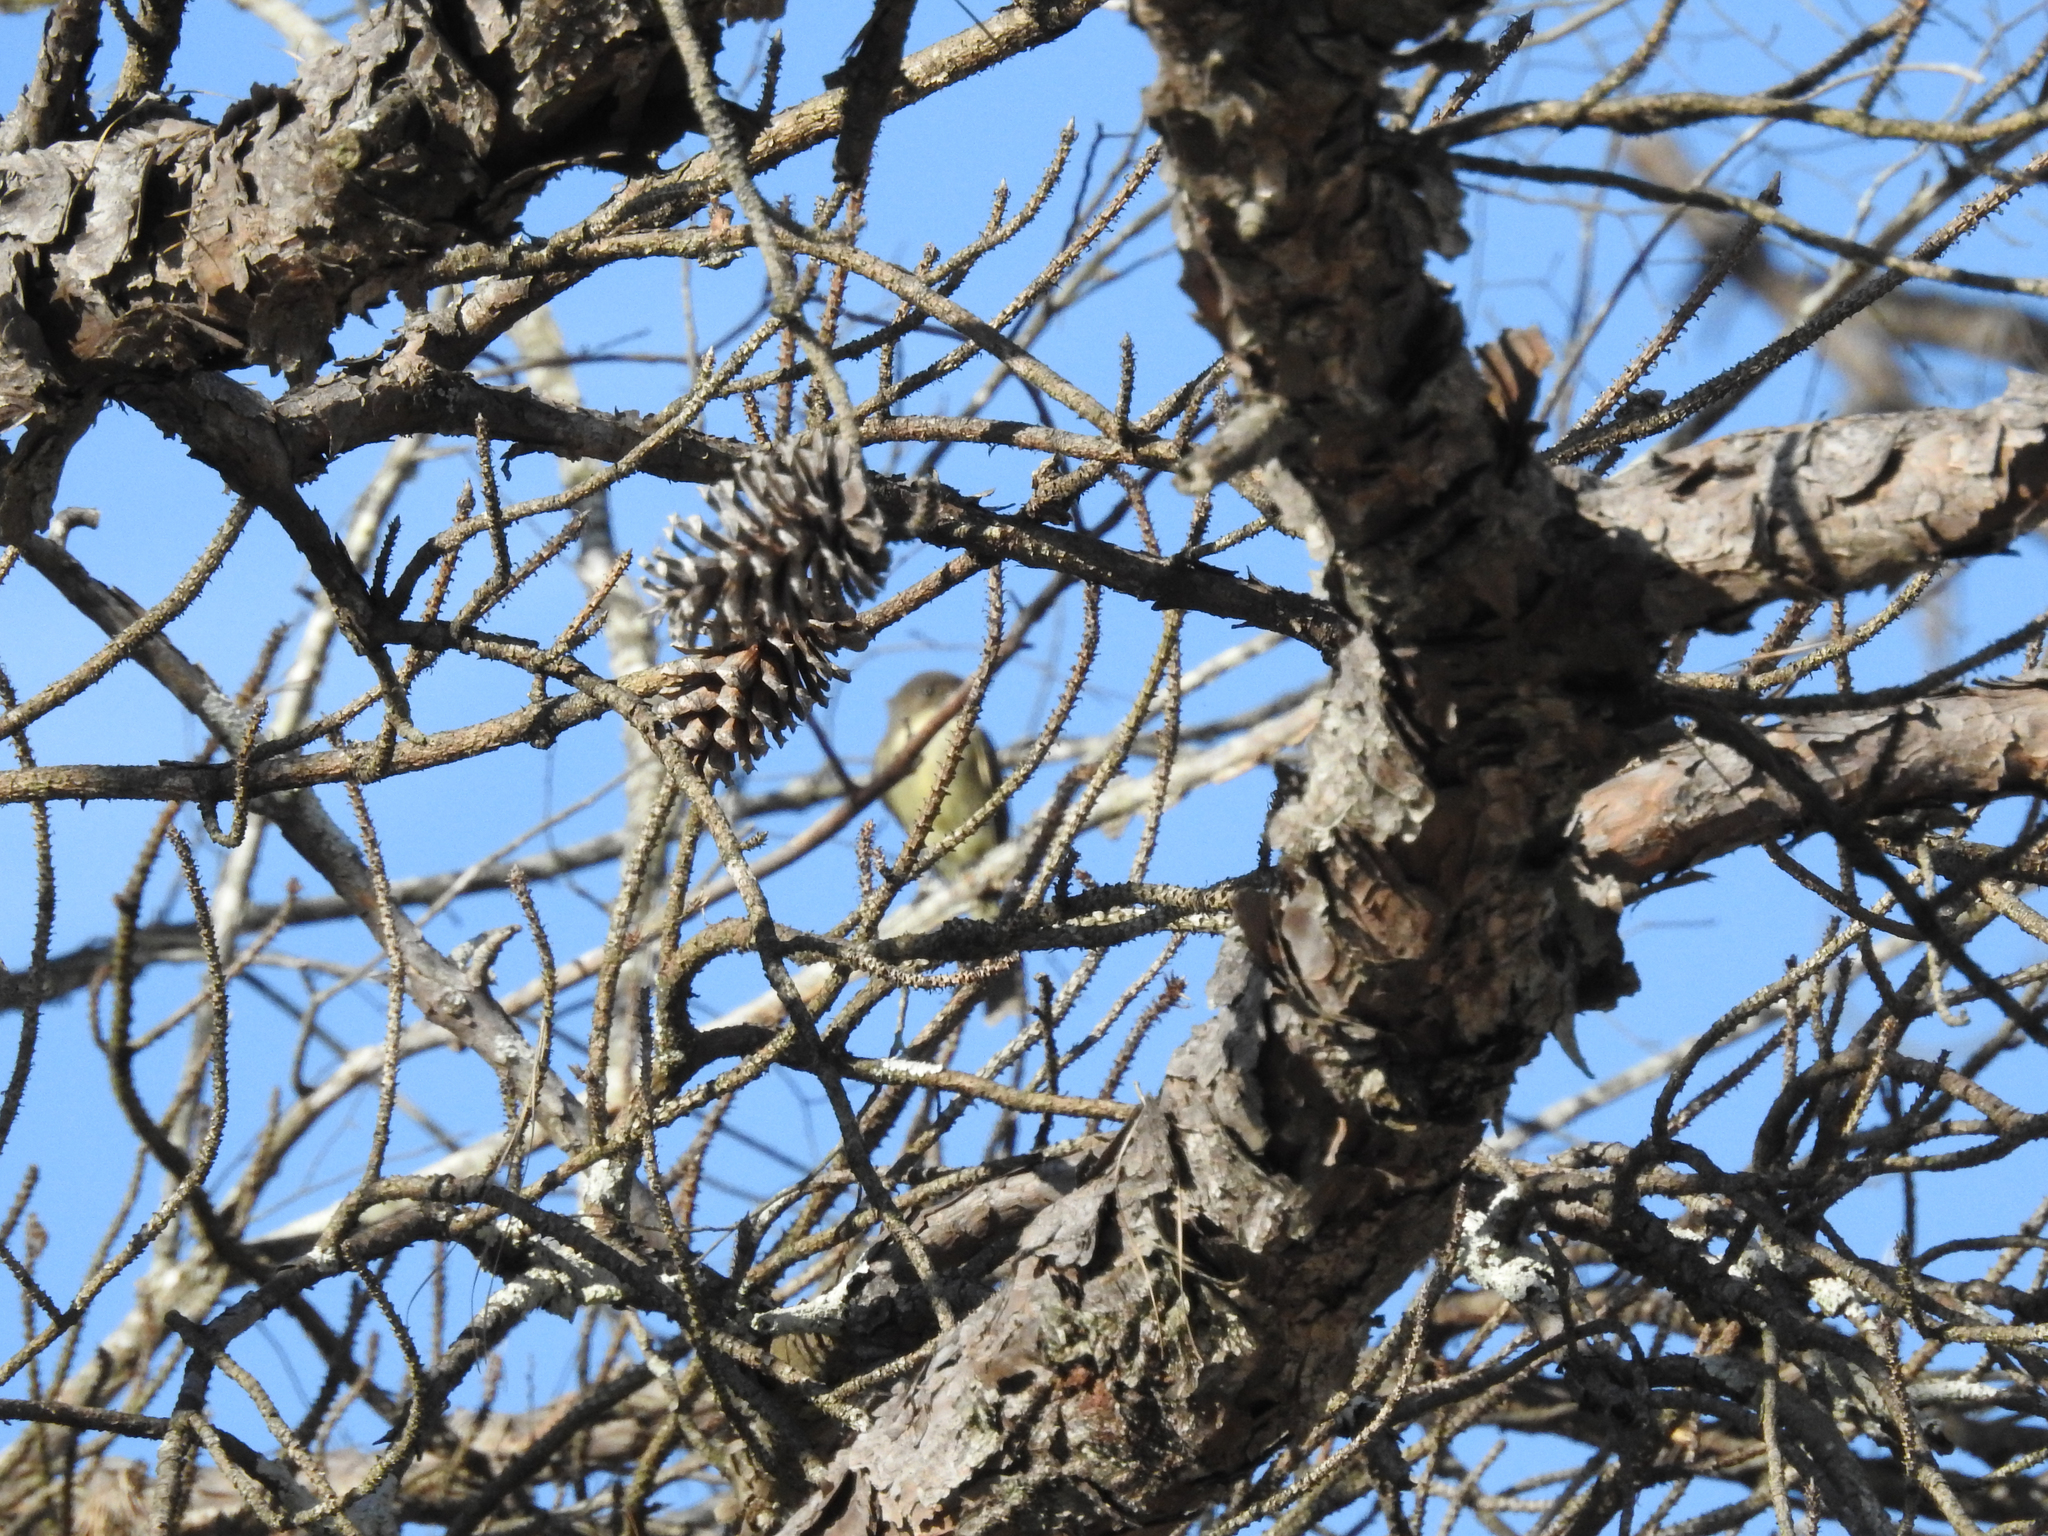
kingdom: Animalia
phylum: Chordata
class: Aves
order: Passeriformes
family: Tyrannidae
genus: Sayornis
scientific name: Sayornis phoebe
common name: Eastern phoebe
